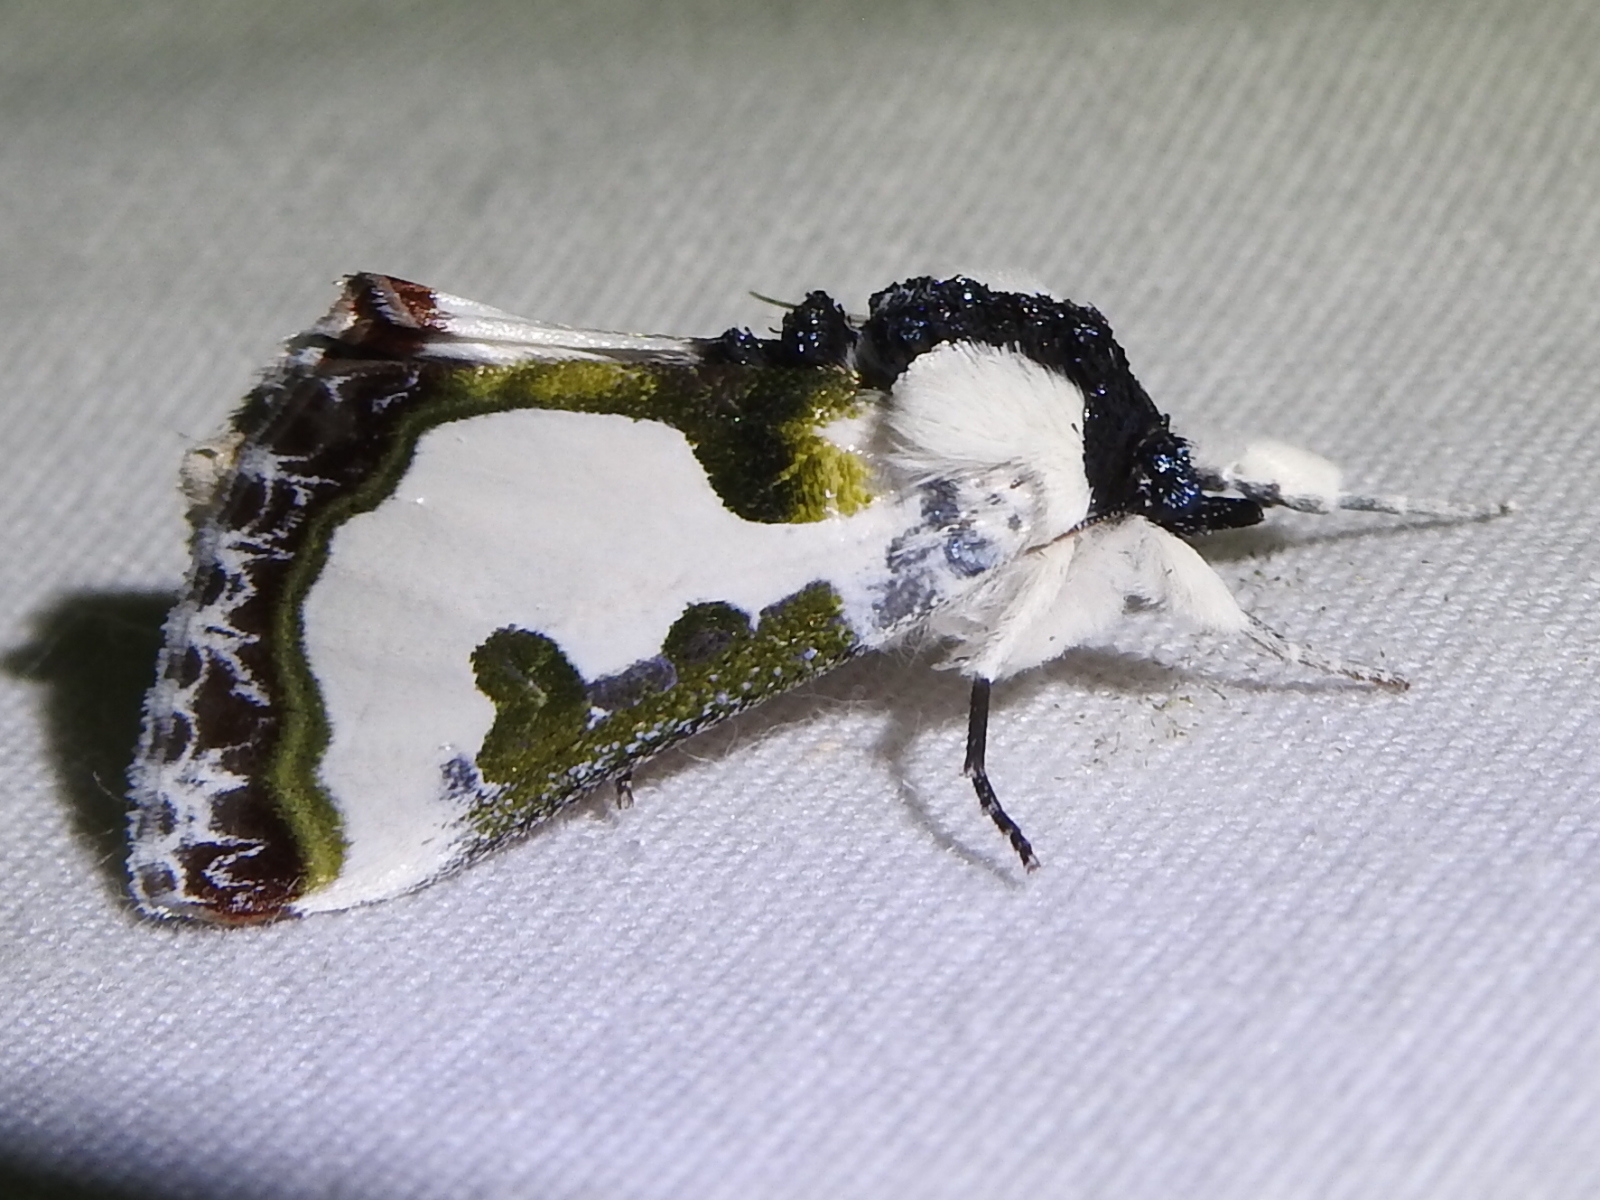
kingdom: Animalia
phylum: Arthropoda
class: Insecta
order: Lepidoptera
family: Noctuidae
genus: Xerociris
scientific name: Xerociris wilsonii
